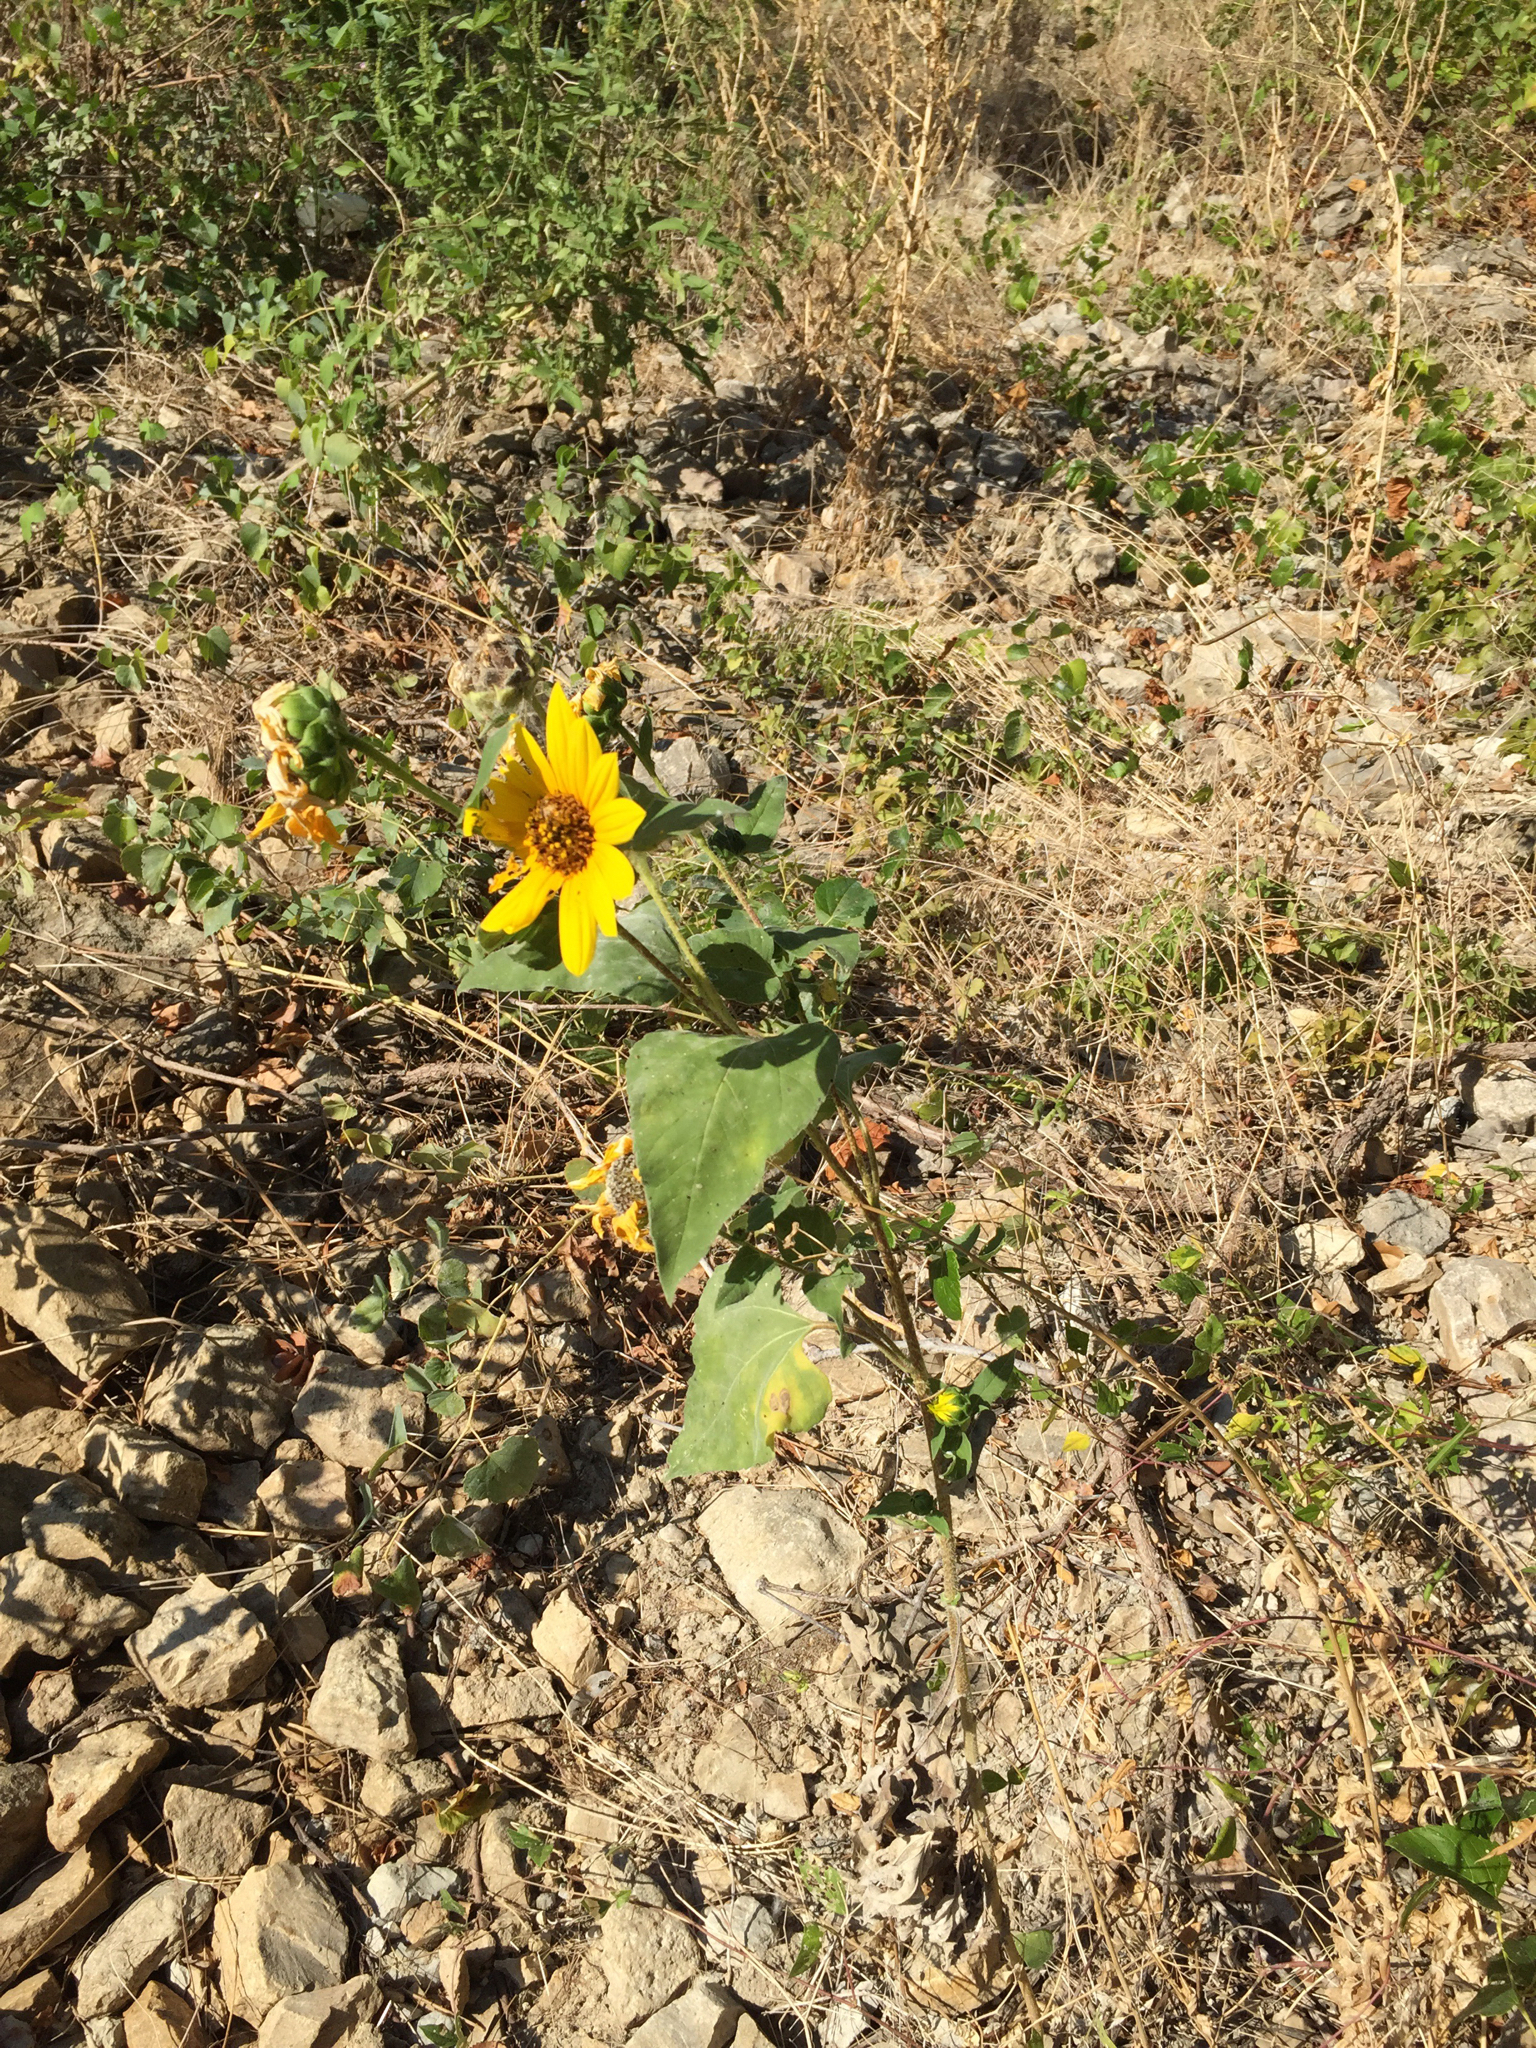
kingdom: Plantae
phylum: Tracheophyta
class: Magnoliopsida
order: Asterales
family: Asteraceae
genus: Helianthus
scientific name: Helianthus annuus
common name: Sunflower
